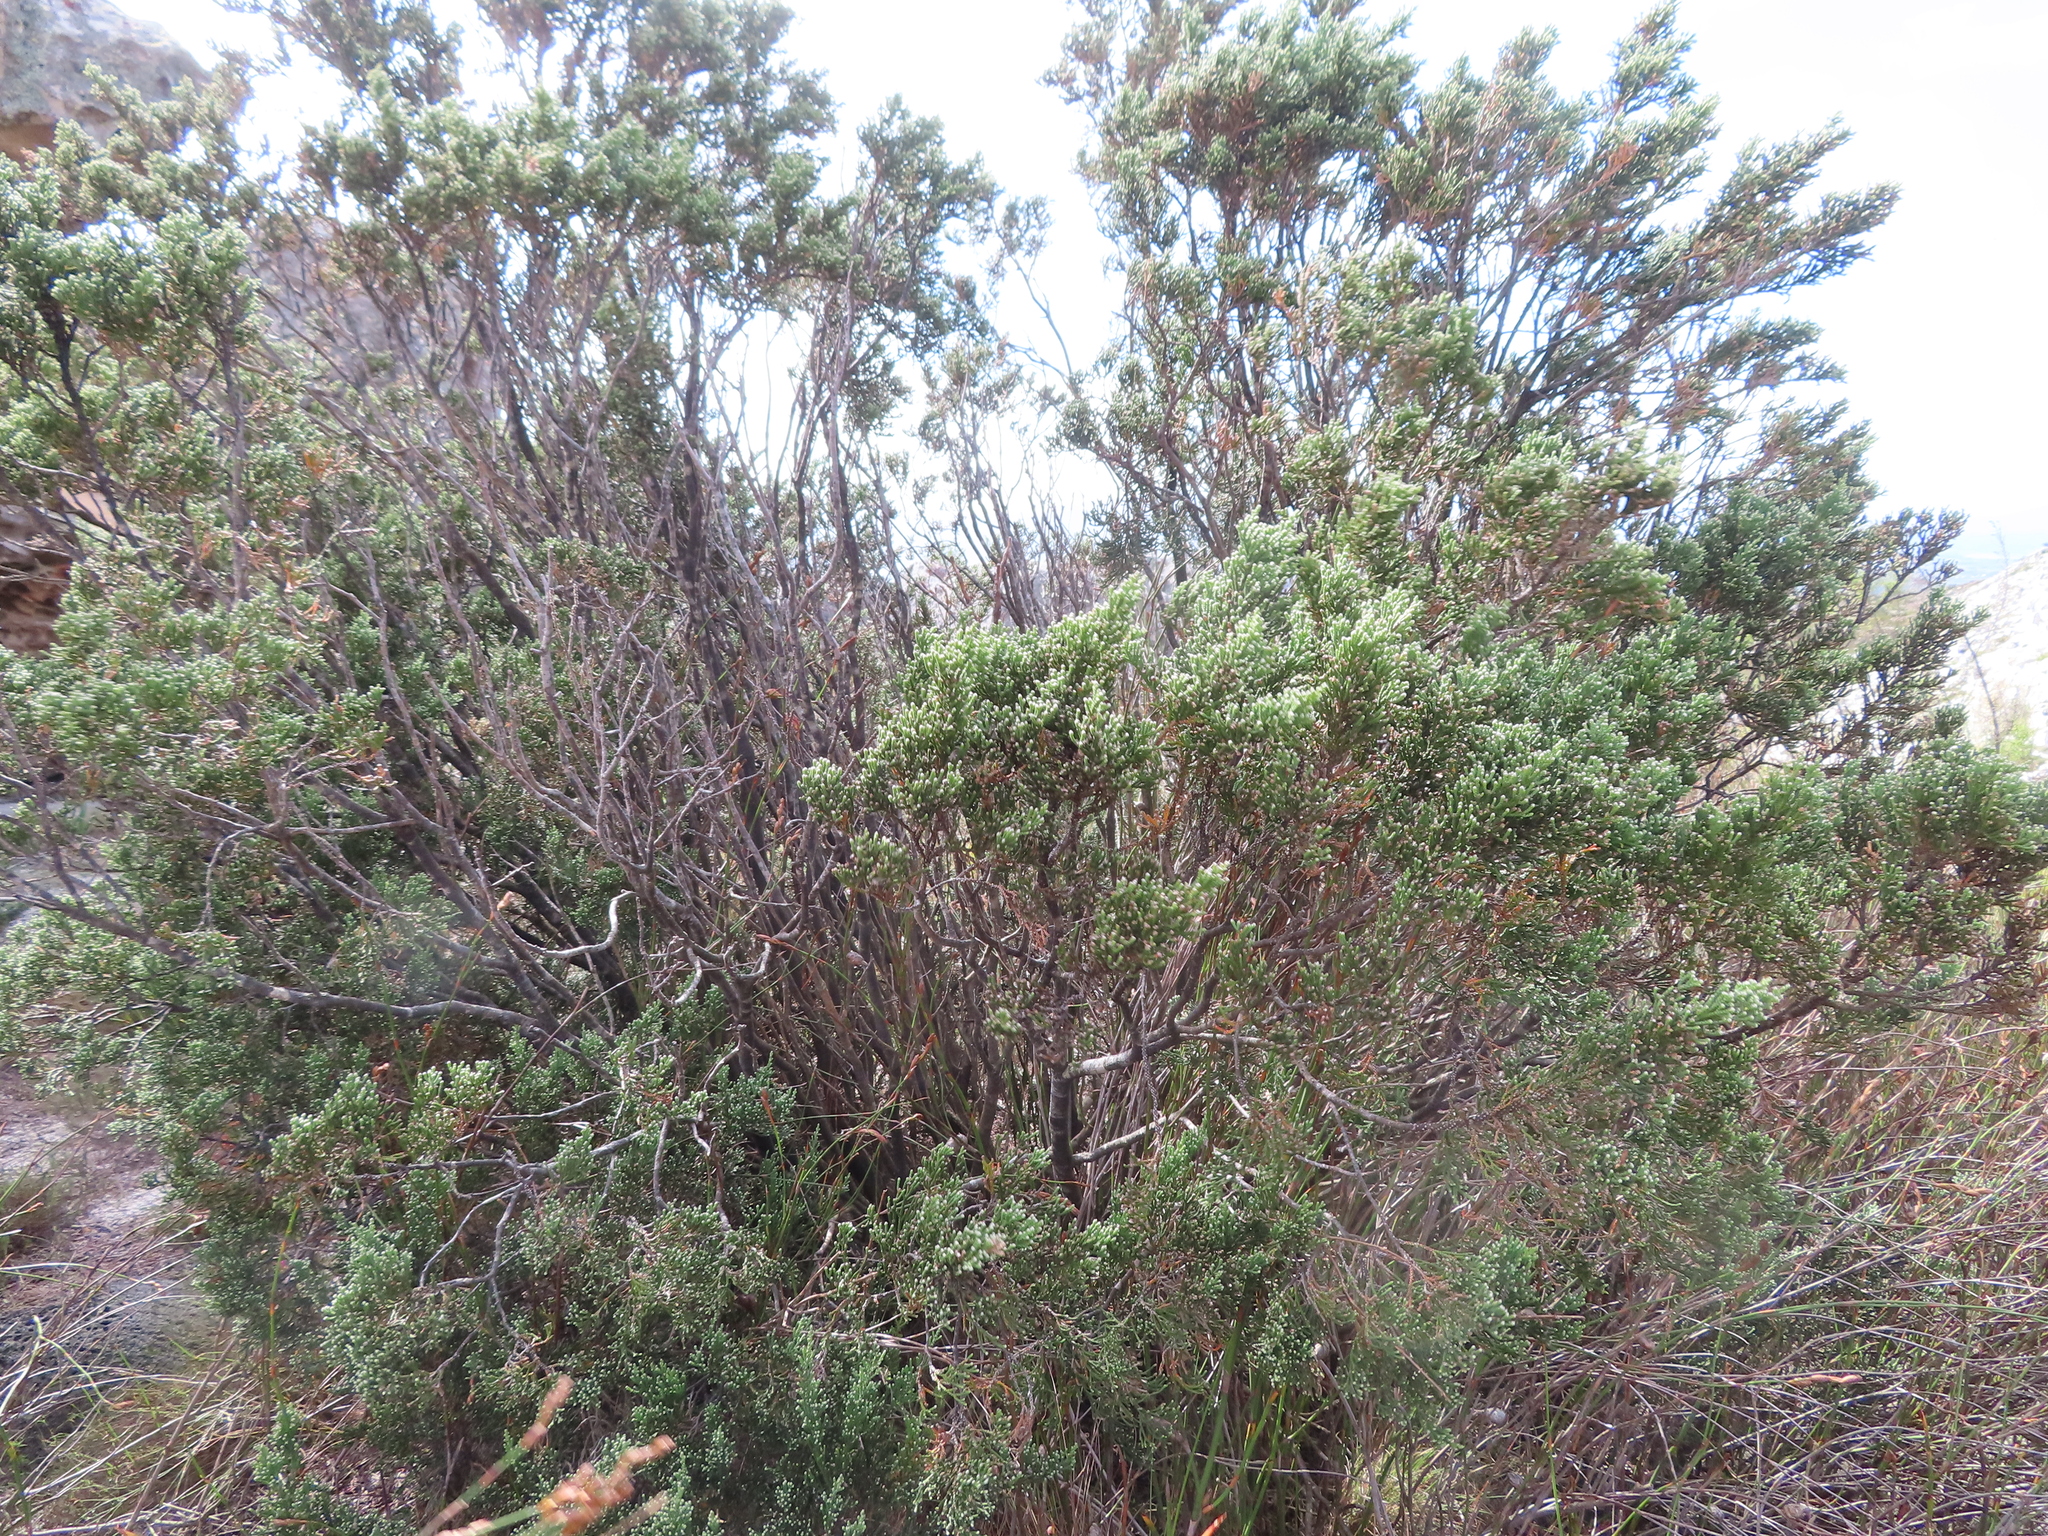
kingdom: Plantae
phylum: Tracheophyta
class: Magnoliopsida
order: Bruniales
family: Bruniaceae
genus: Brunia
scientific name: Brunia microphylla
